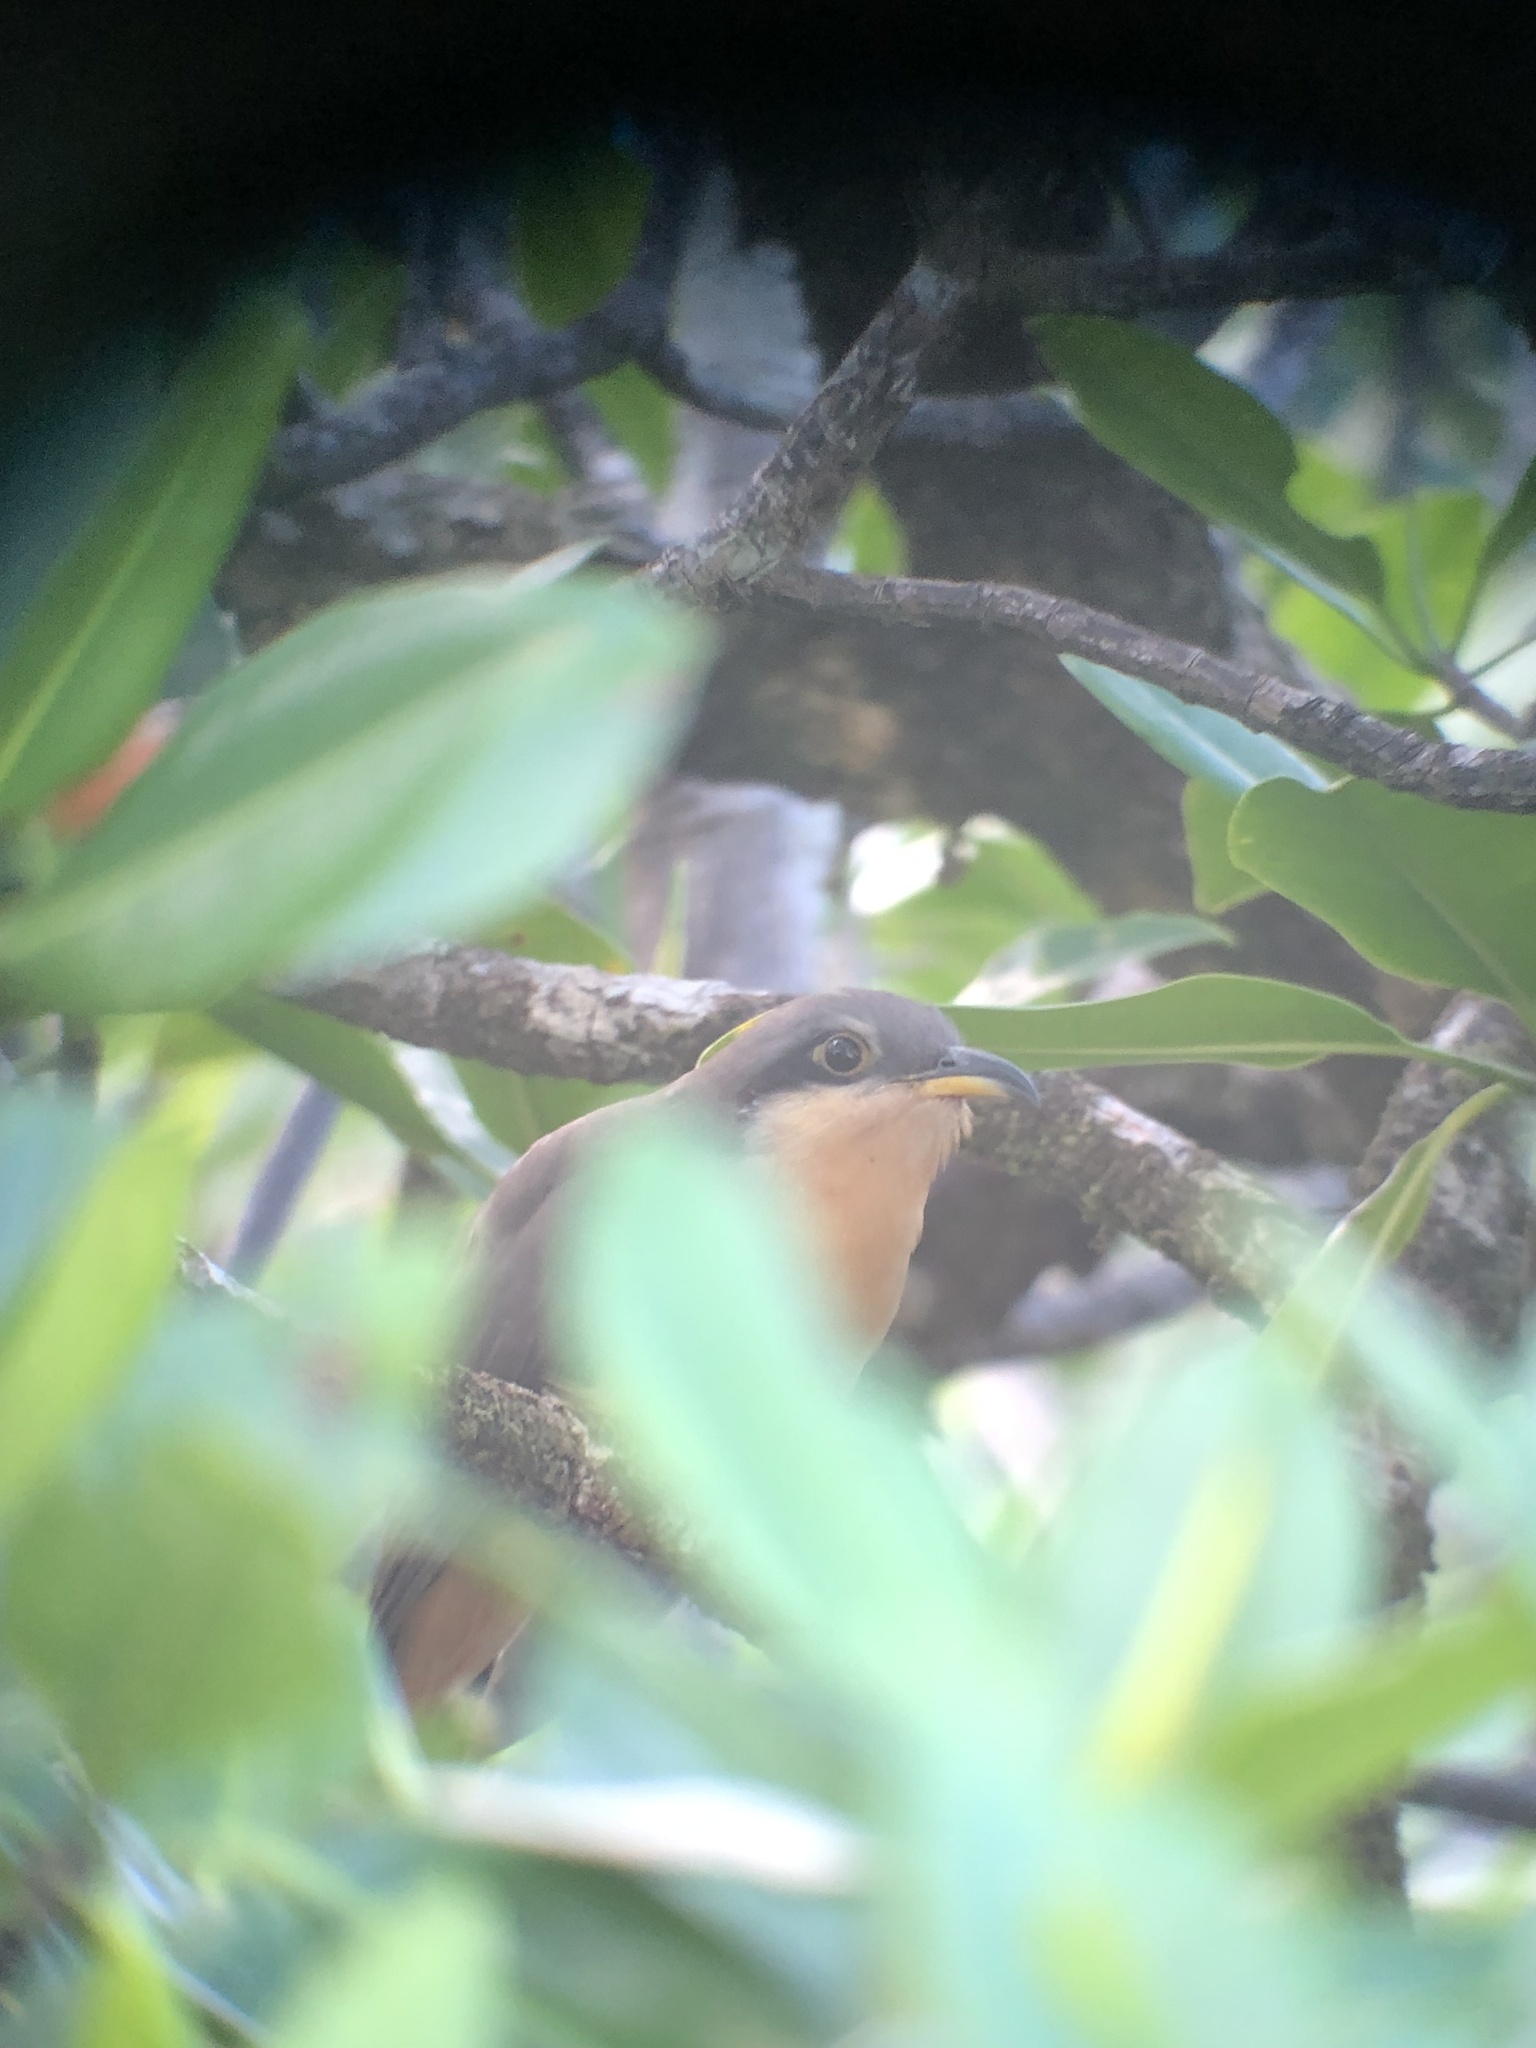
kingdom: Animalia
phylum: Chordata
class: Aves
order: Cuculiformes
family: Cuculidae
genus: Coccyzus
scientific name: Coccyzus minor
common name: Mangrove cuckoo
